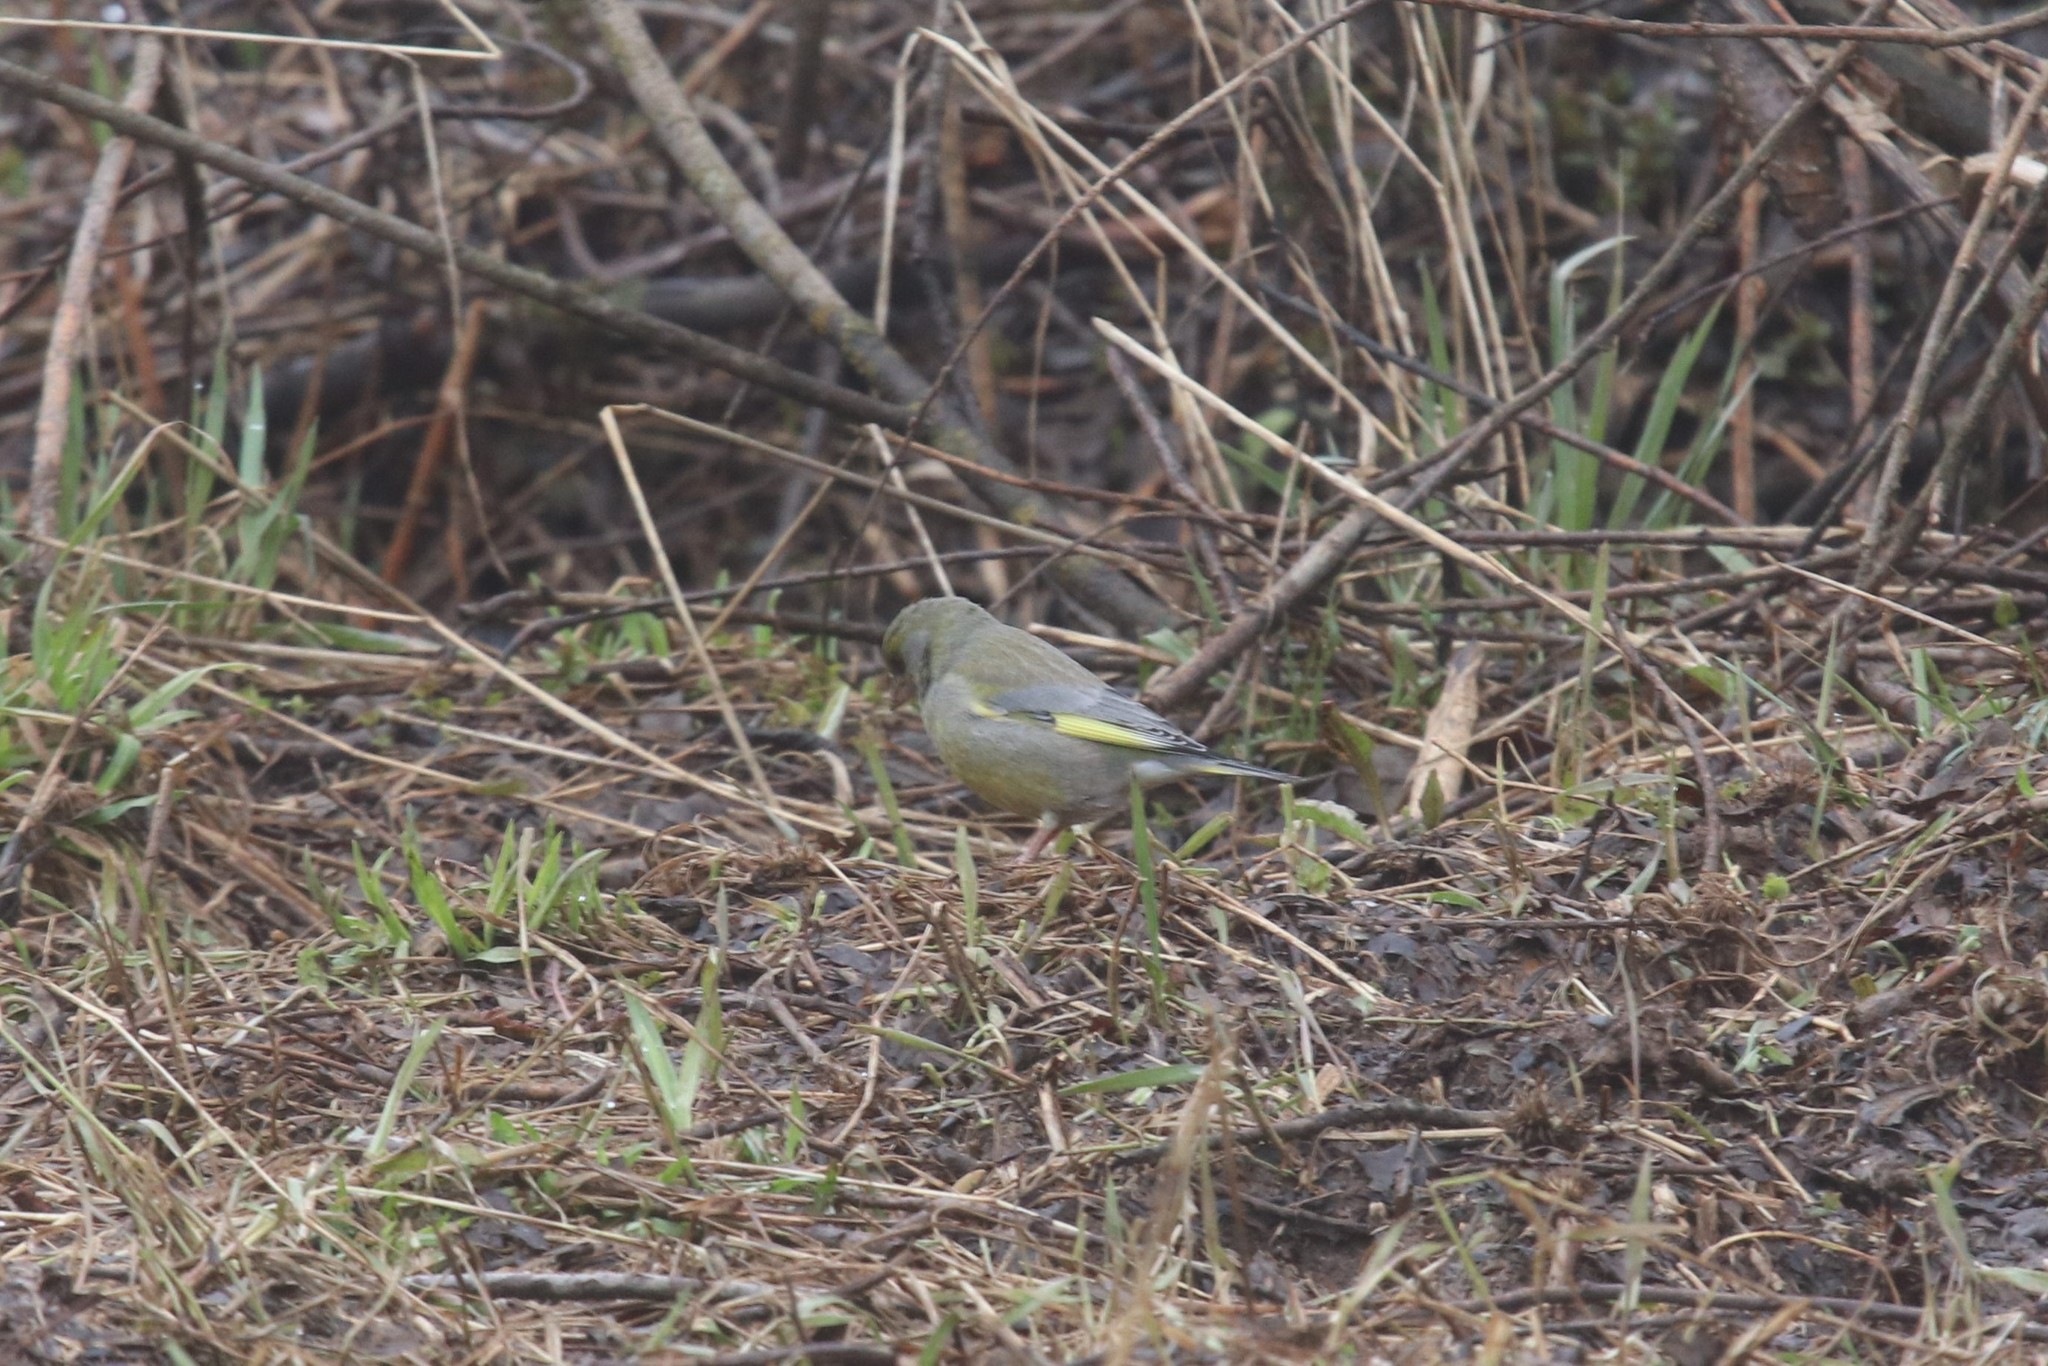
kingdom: Plantae
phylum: Tracheophyta
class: Liliopsida
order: Poales
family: Poaceae
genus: Chloris
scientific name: Chloris chloris
